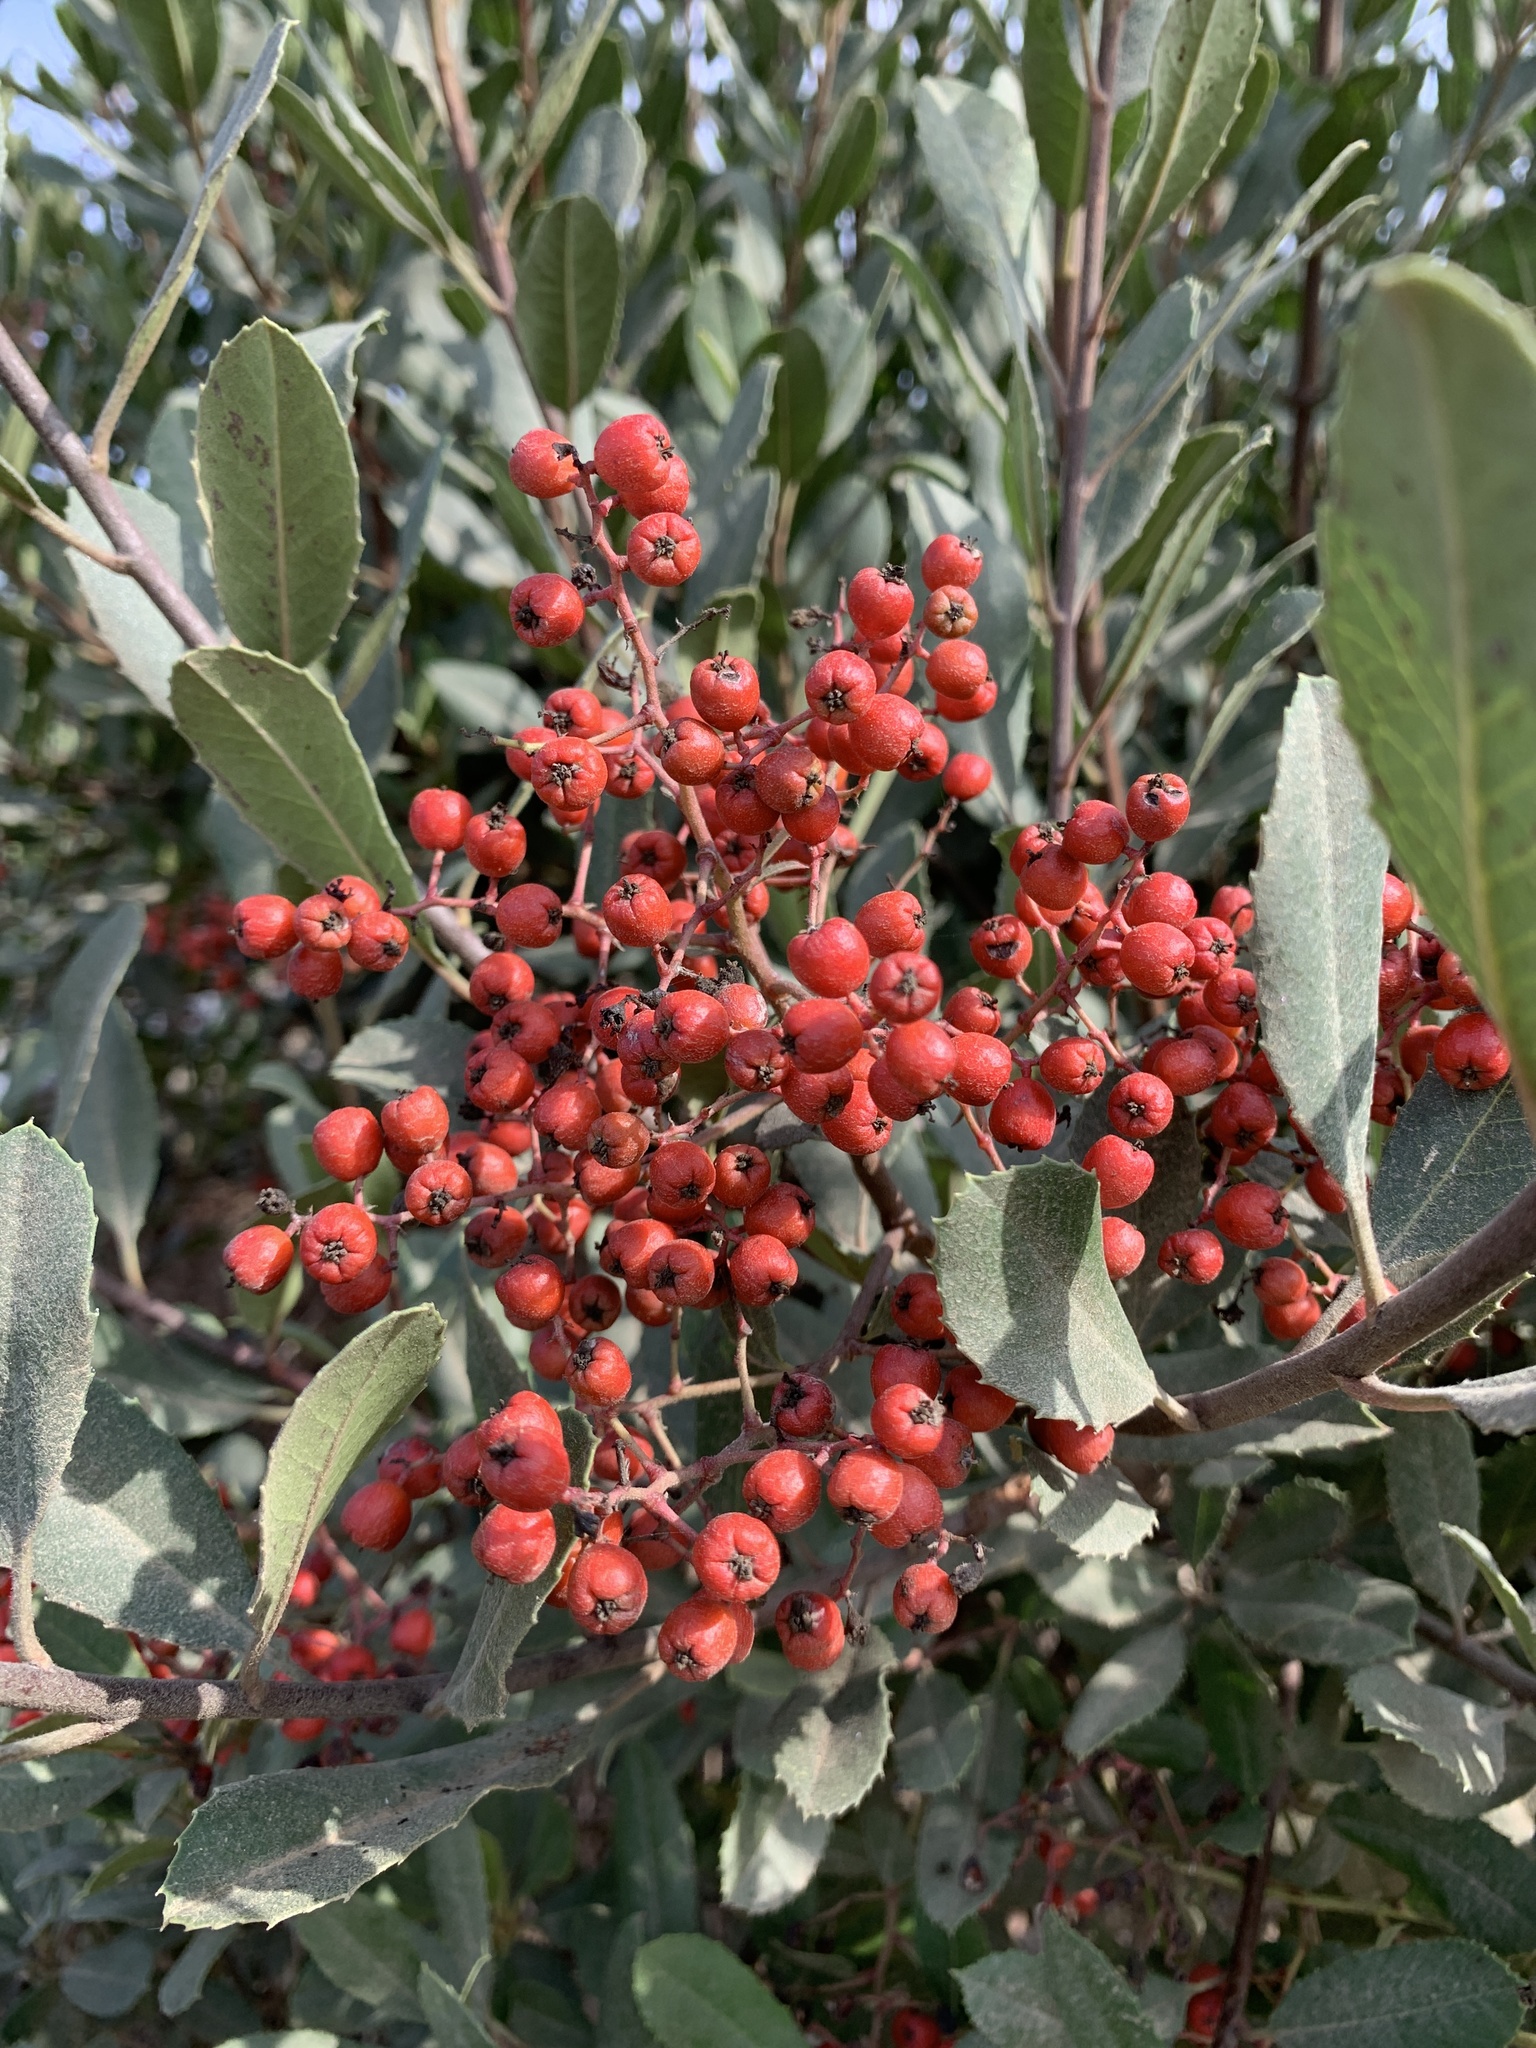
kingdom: Plantae
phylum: Tracheophyta
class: Magnoliopsida
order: Rosales
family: Rosaceae
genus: Heteromeles
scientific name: Heteromeles arbutifolia
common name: California-holly
